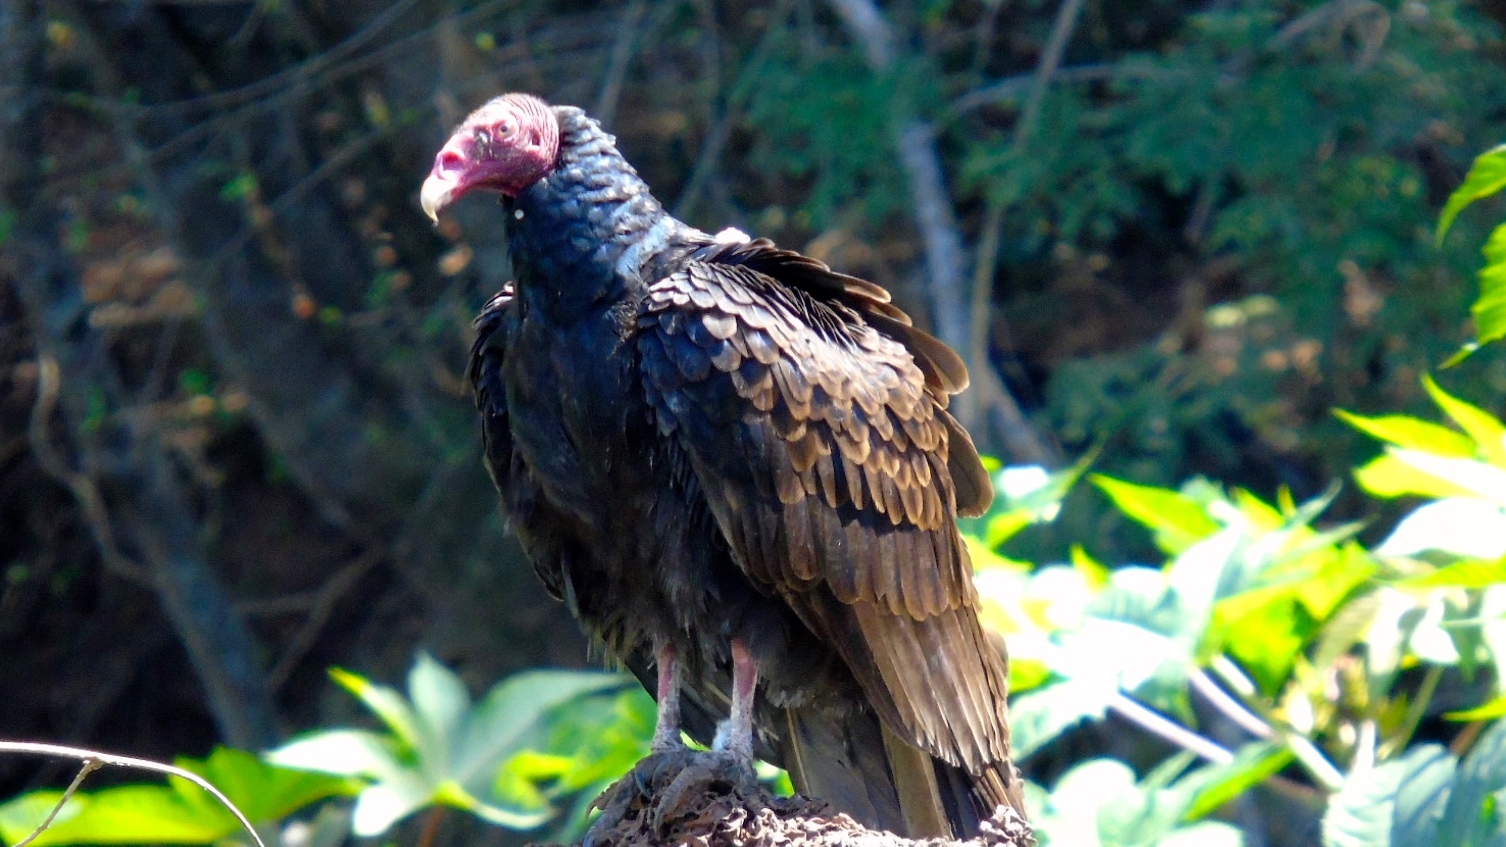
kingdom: Animalia
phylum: Chordata
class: Aves
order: Accipitriformes
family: Cathartidae
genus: Cathartes
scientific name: Cathartes aura
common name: Turkey vulture
